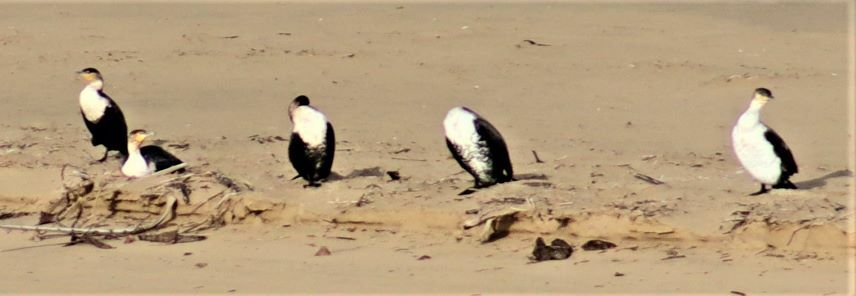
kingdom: Animalia
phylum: Chordata
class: Aves
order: Suliformes
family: Phalacrocoracidae
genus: Phalacrocorax
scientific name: Phalacrocorax carbo
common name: Great cormorant
